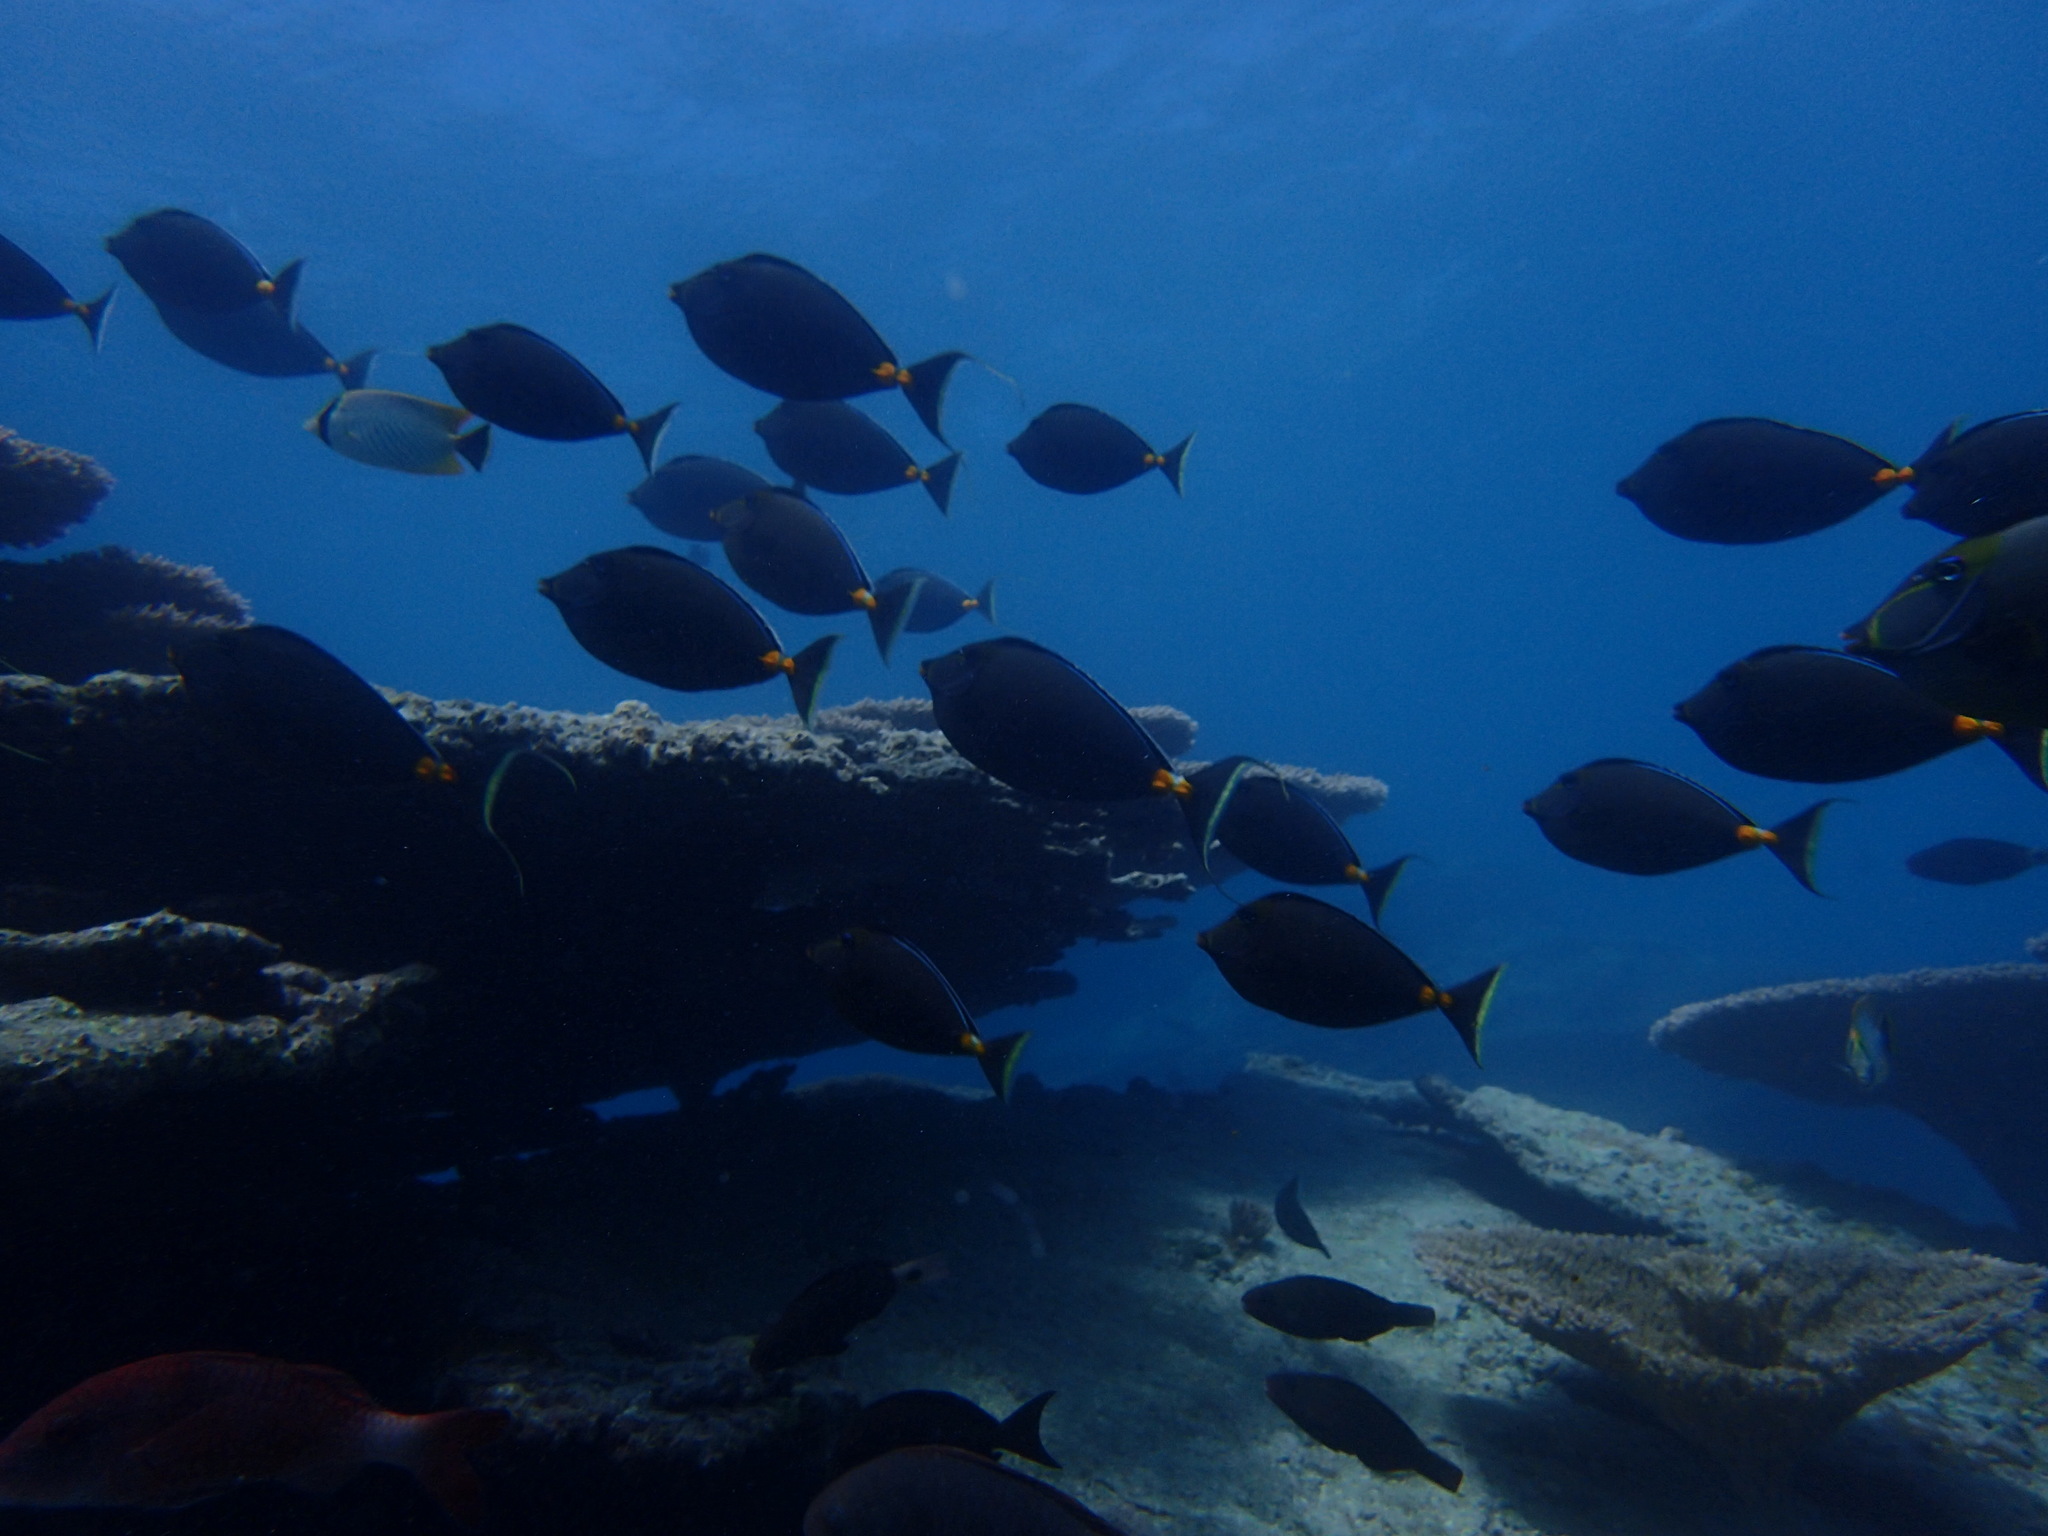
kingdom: Animalia
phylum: Chordata
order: Perciformes
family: Acanthuridae
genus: Naso
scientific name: Naso lituratus
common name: Orangespine unicornfish
